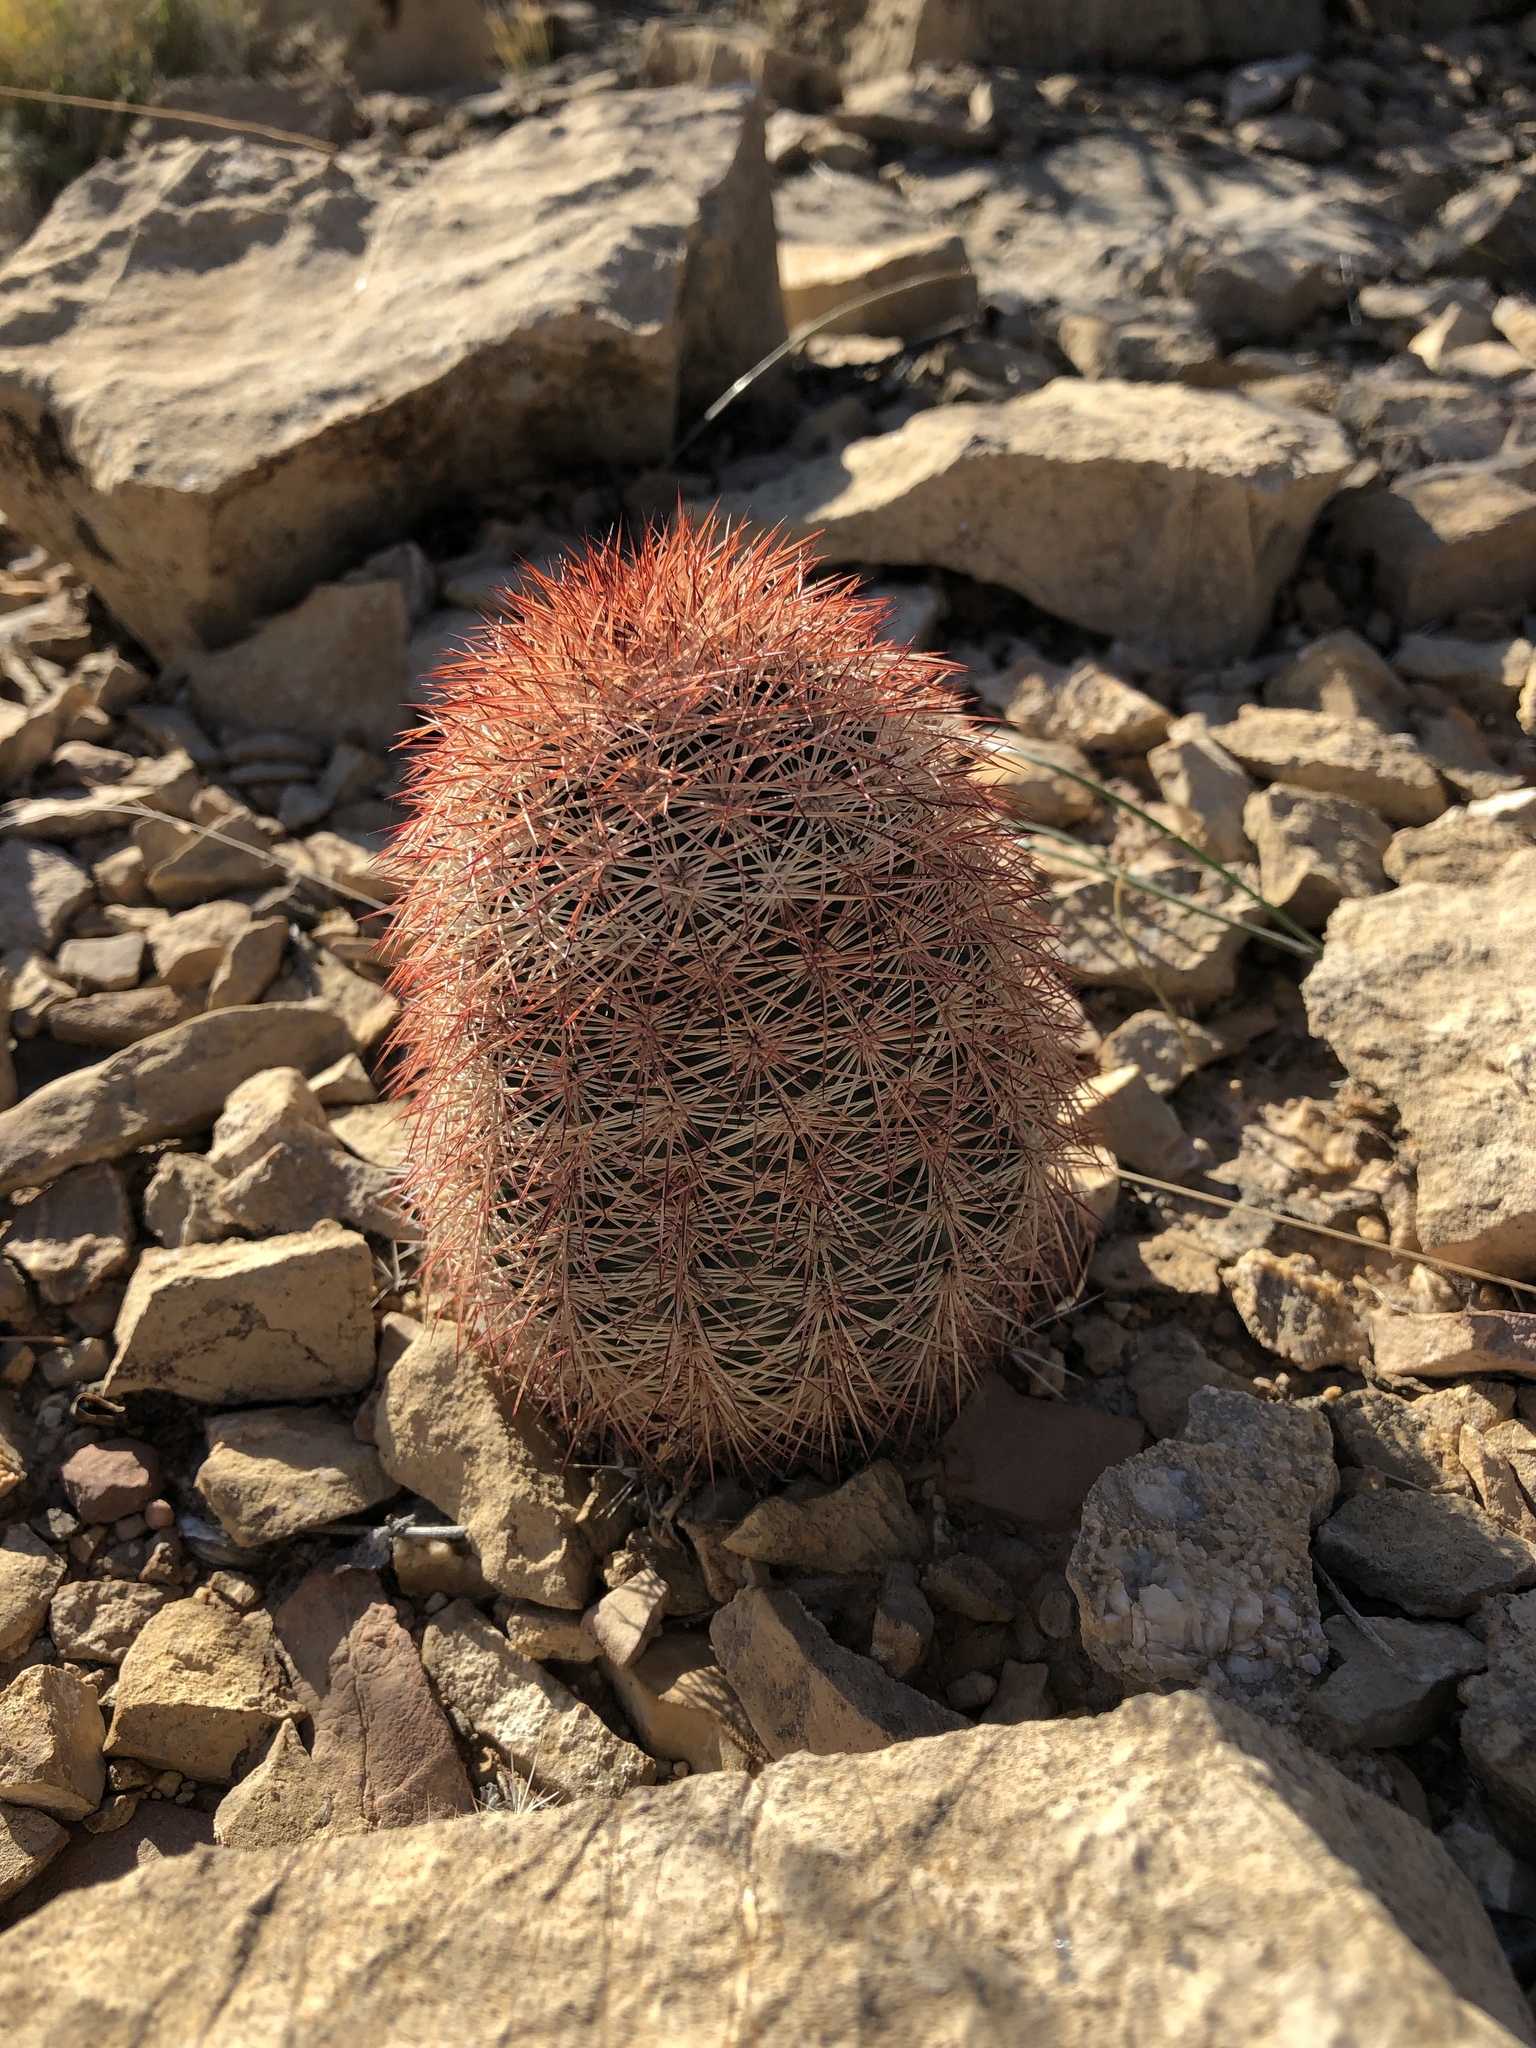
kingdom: Plantae
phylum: Tracheophyta
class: Magnoliopsida
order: Caryophyllales
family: Cactaceae
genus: Echinocereus
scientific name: Echinocereus dasyacanthus
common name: Spiny hedgehog cactus
